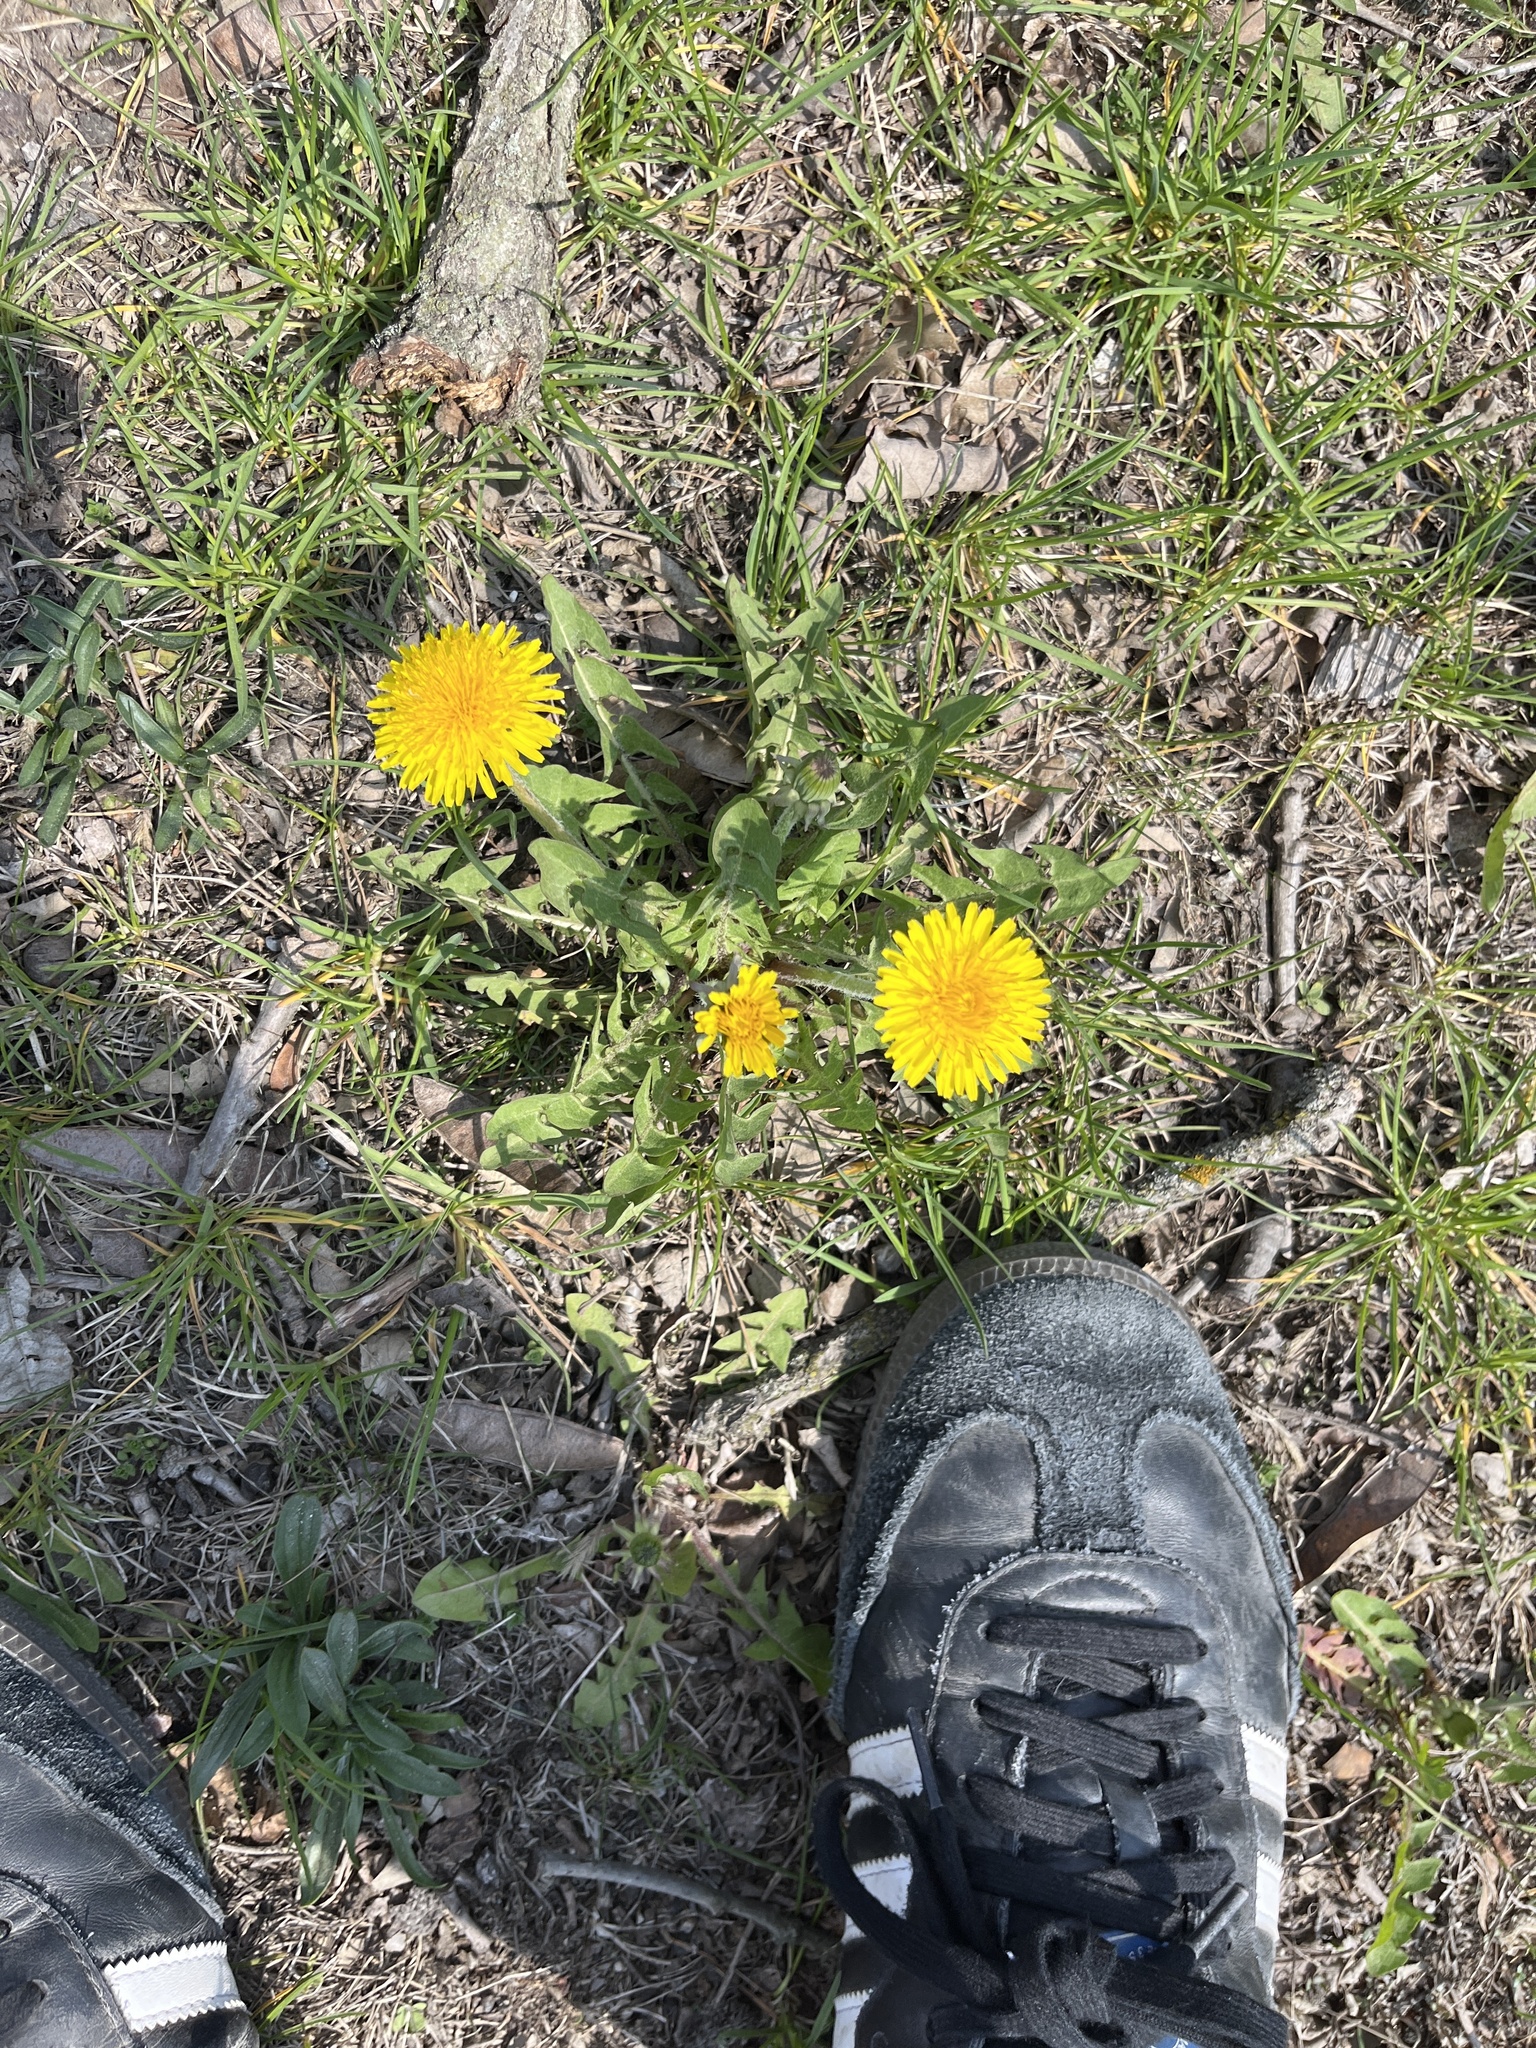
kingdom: Plantae
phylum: Tracheophyta
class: Magnoliopsida
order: Asterales
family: Asteraceae
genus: Taraxacum
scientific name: Taraxacum officinale
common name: Common dandelion
